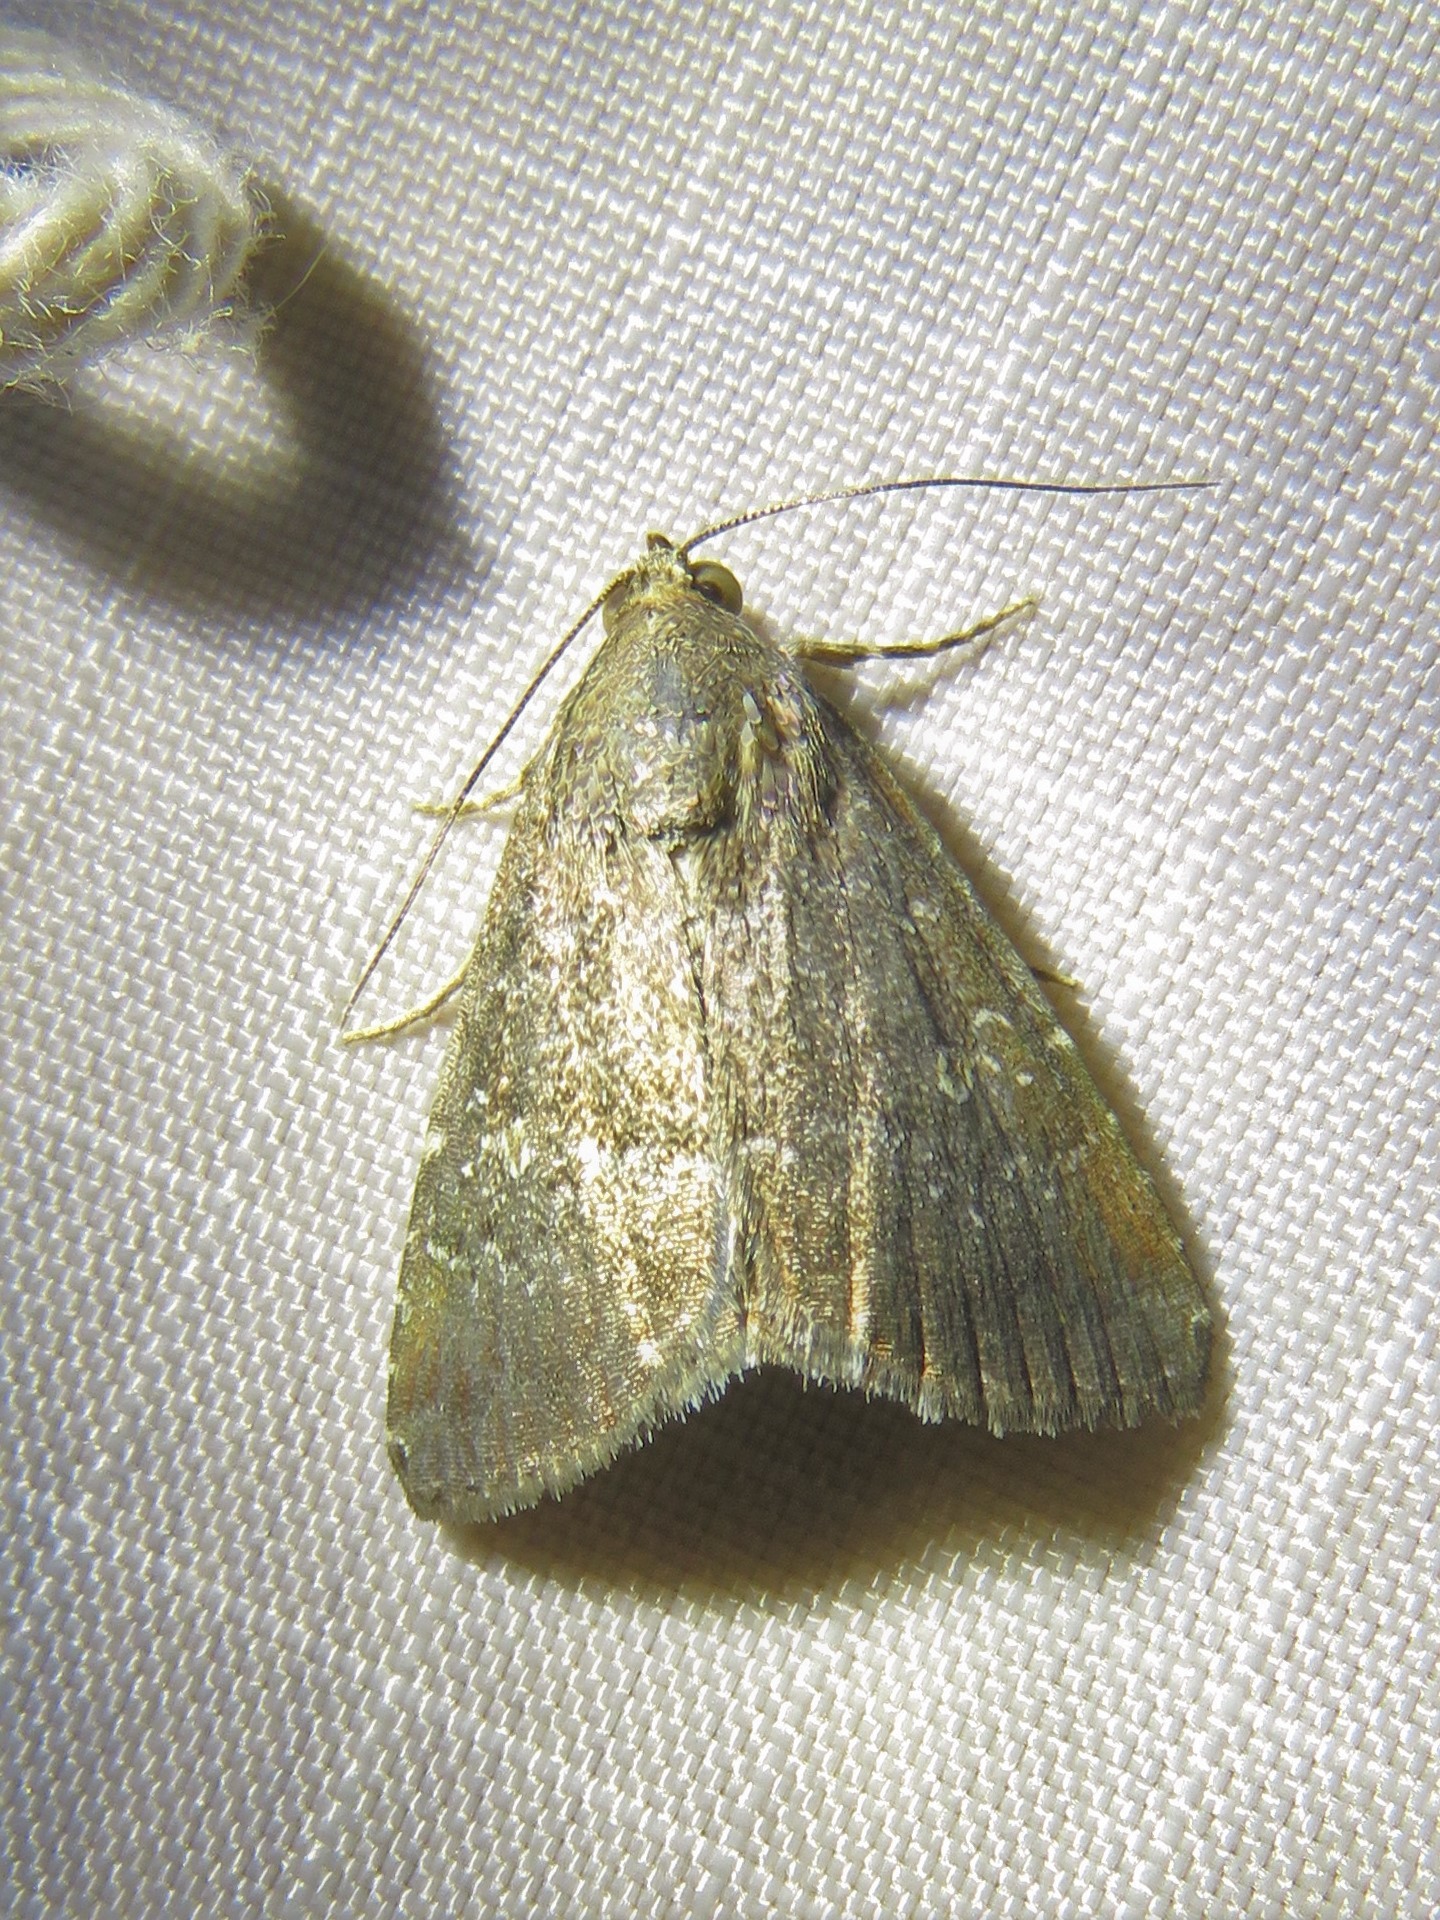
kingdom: Animalia
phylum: Arthropoda
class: Insecta
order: Lepidoptera
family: Noctuidae
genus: Amyna
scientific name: Amyna stricta
